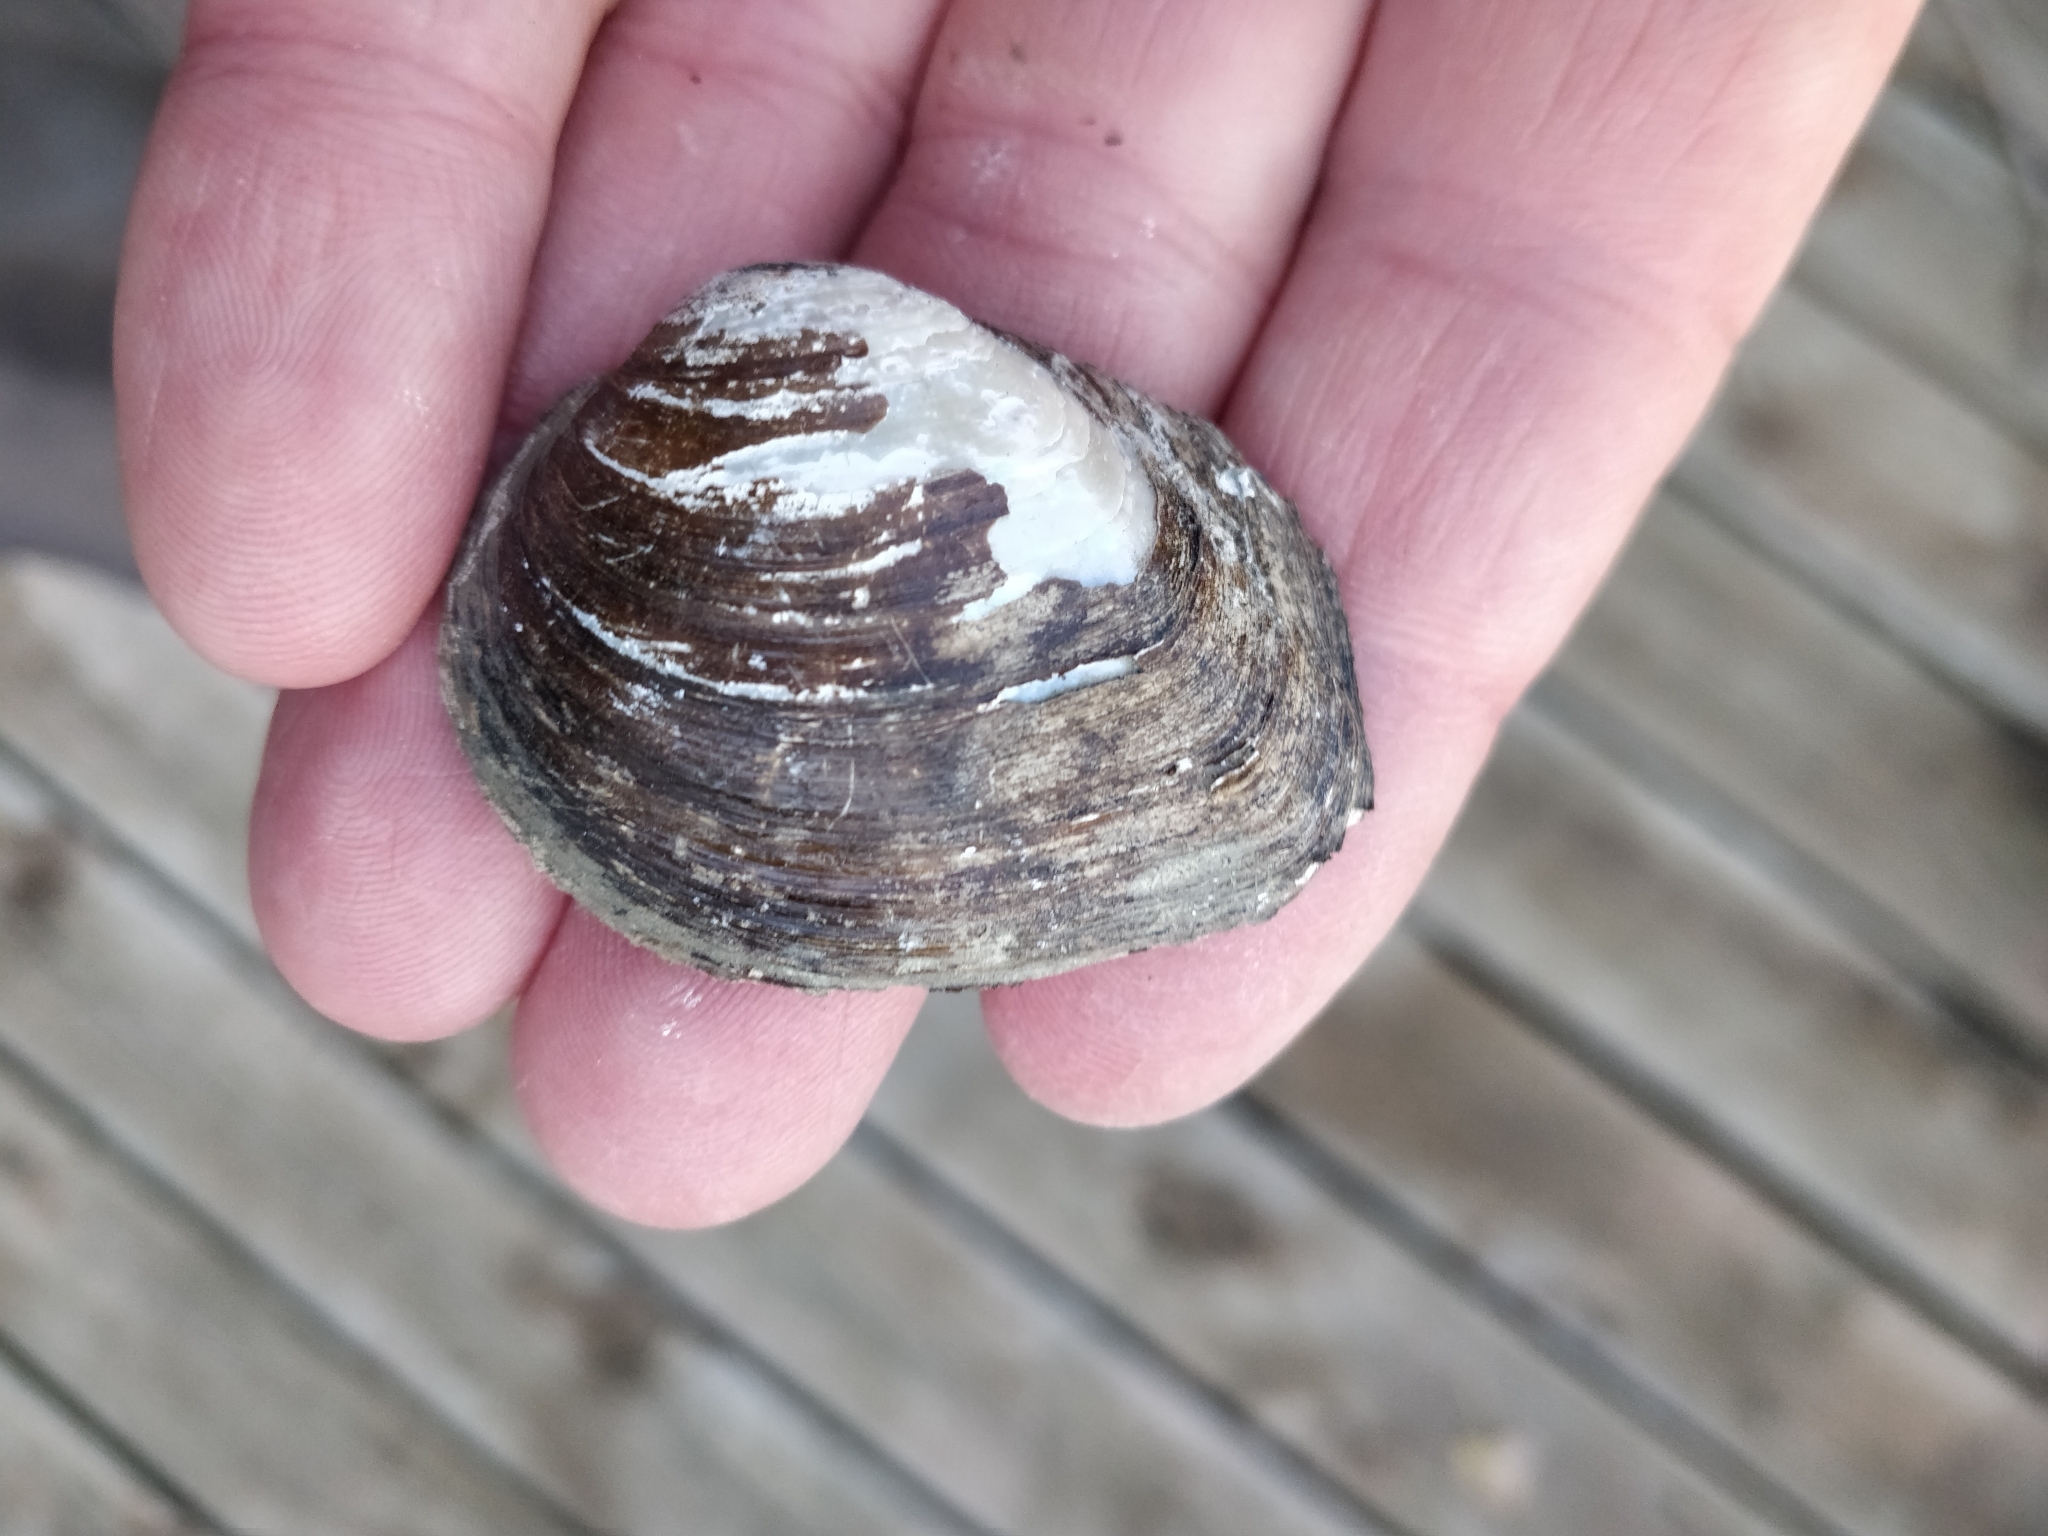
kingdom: Animalia
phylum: Mollusca
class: Bivalvia
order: Unionida
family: Unionidae
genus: Fusconaia
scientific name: Fusconaia flava
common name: Wabash pigtoe
